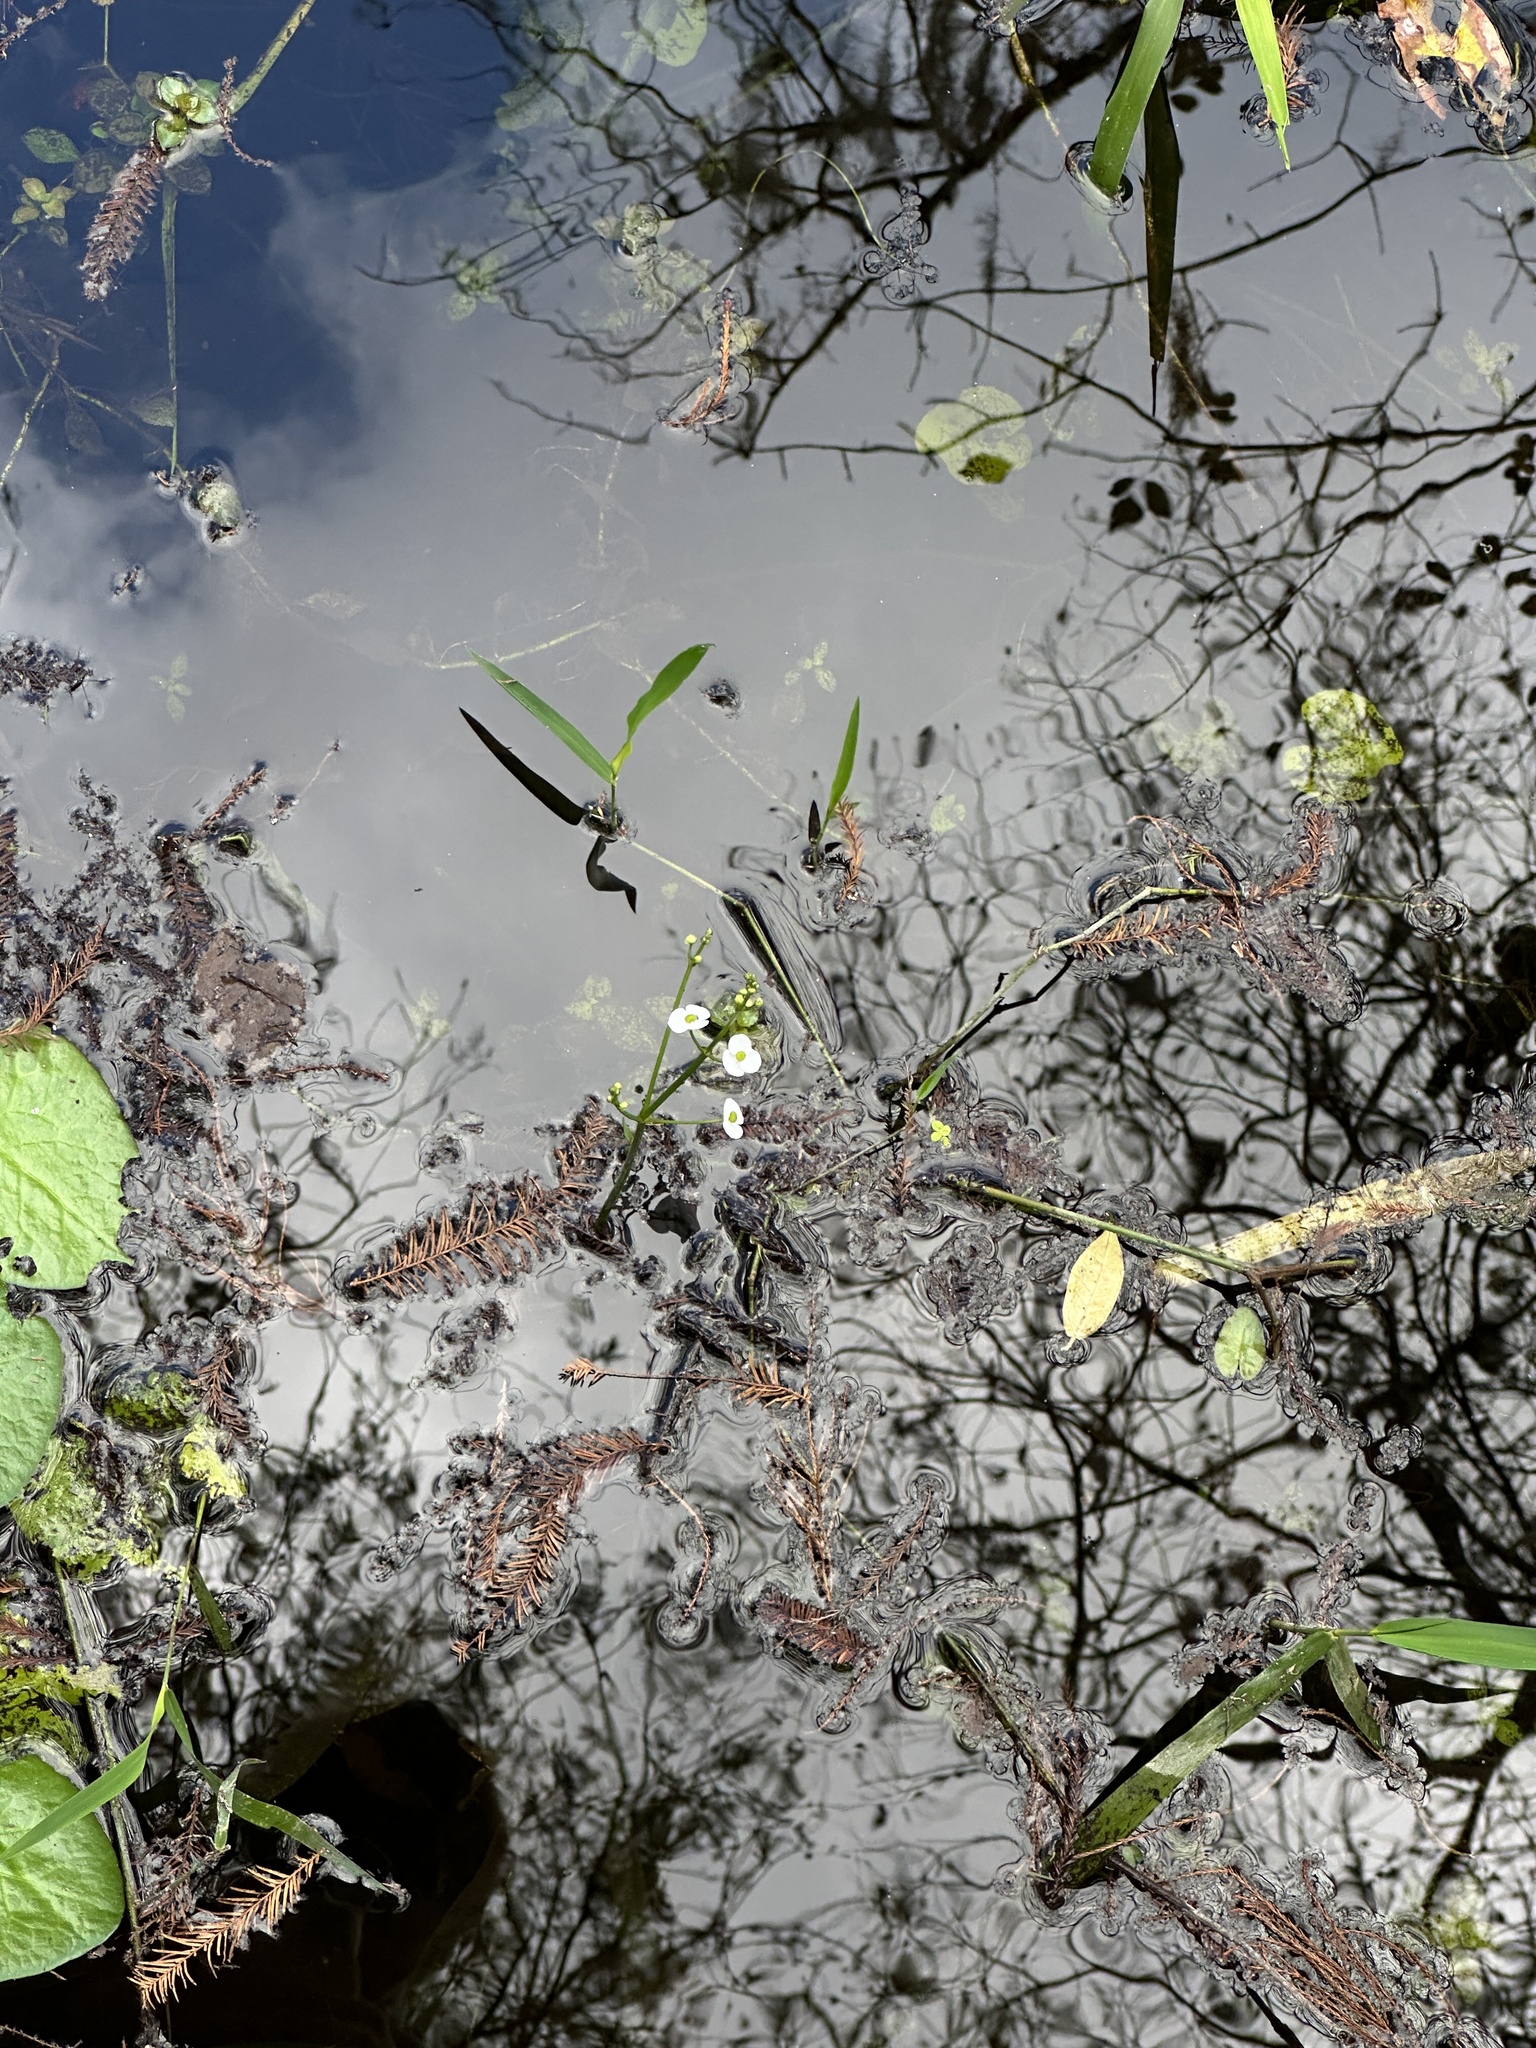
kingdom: Plantae
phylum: Tracheophyta
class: Liliopsida
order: Alismatales
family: Alismataceae
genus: Sagittaria
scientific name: Sagittaria chapmanii
